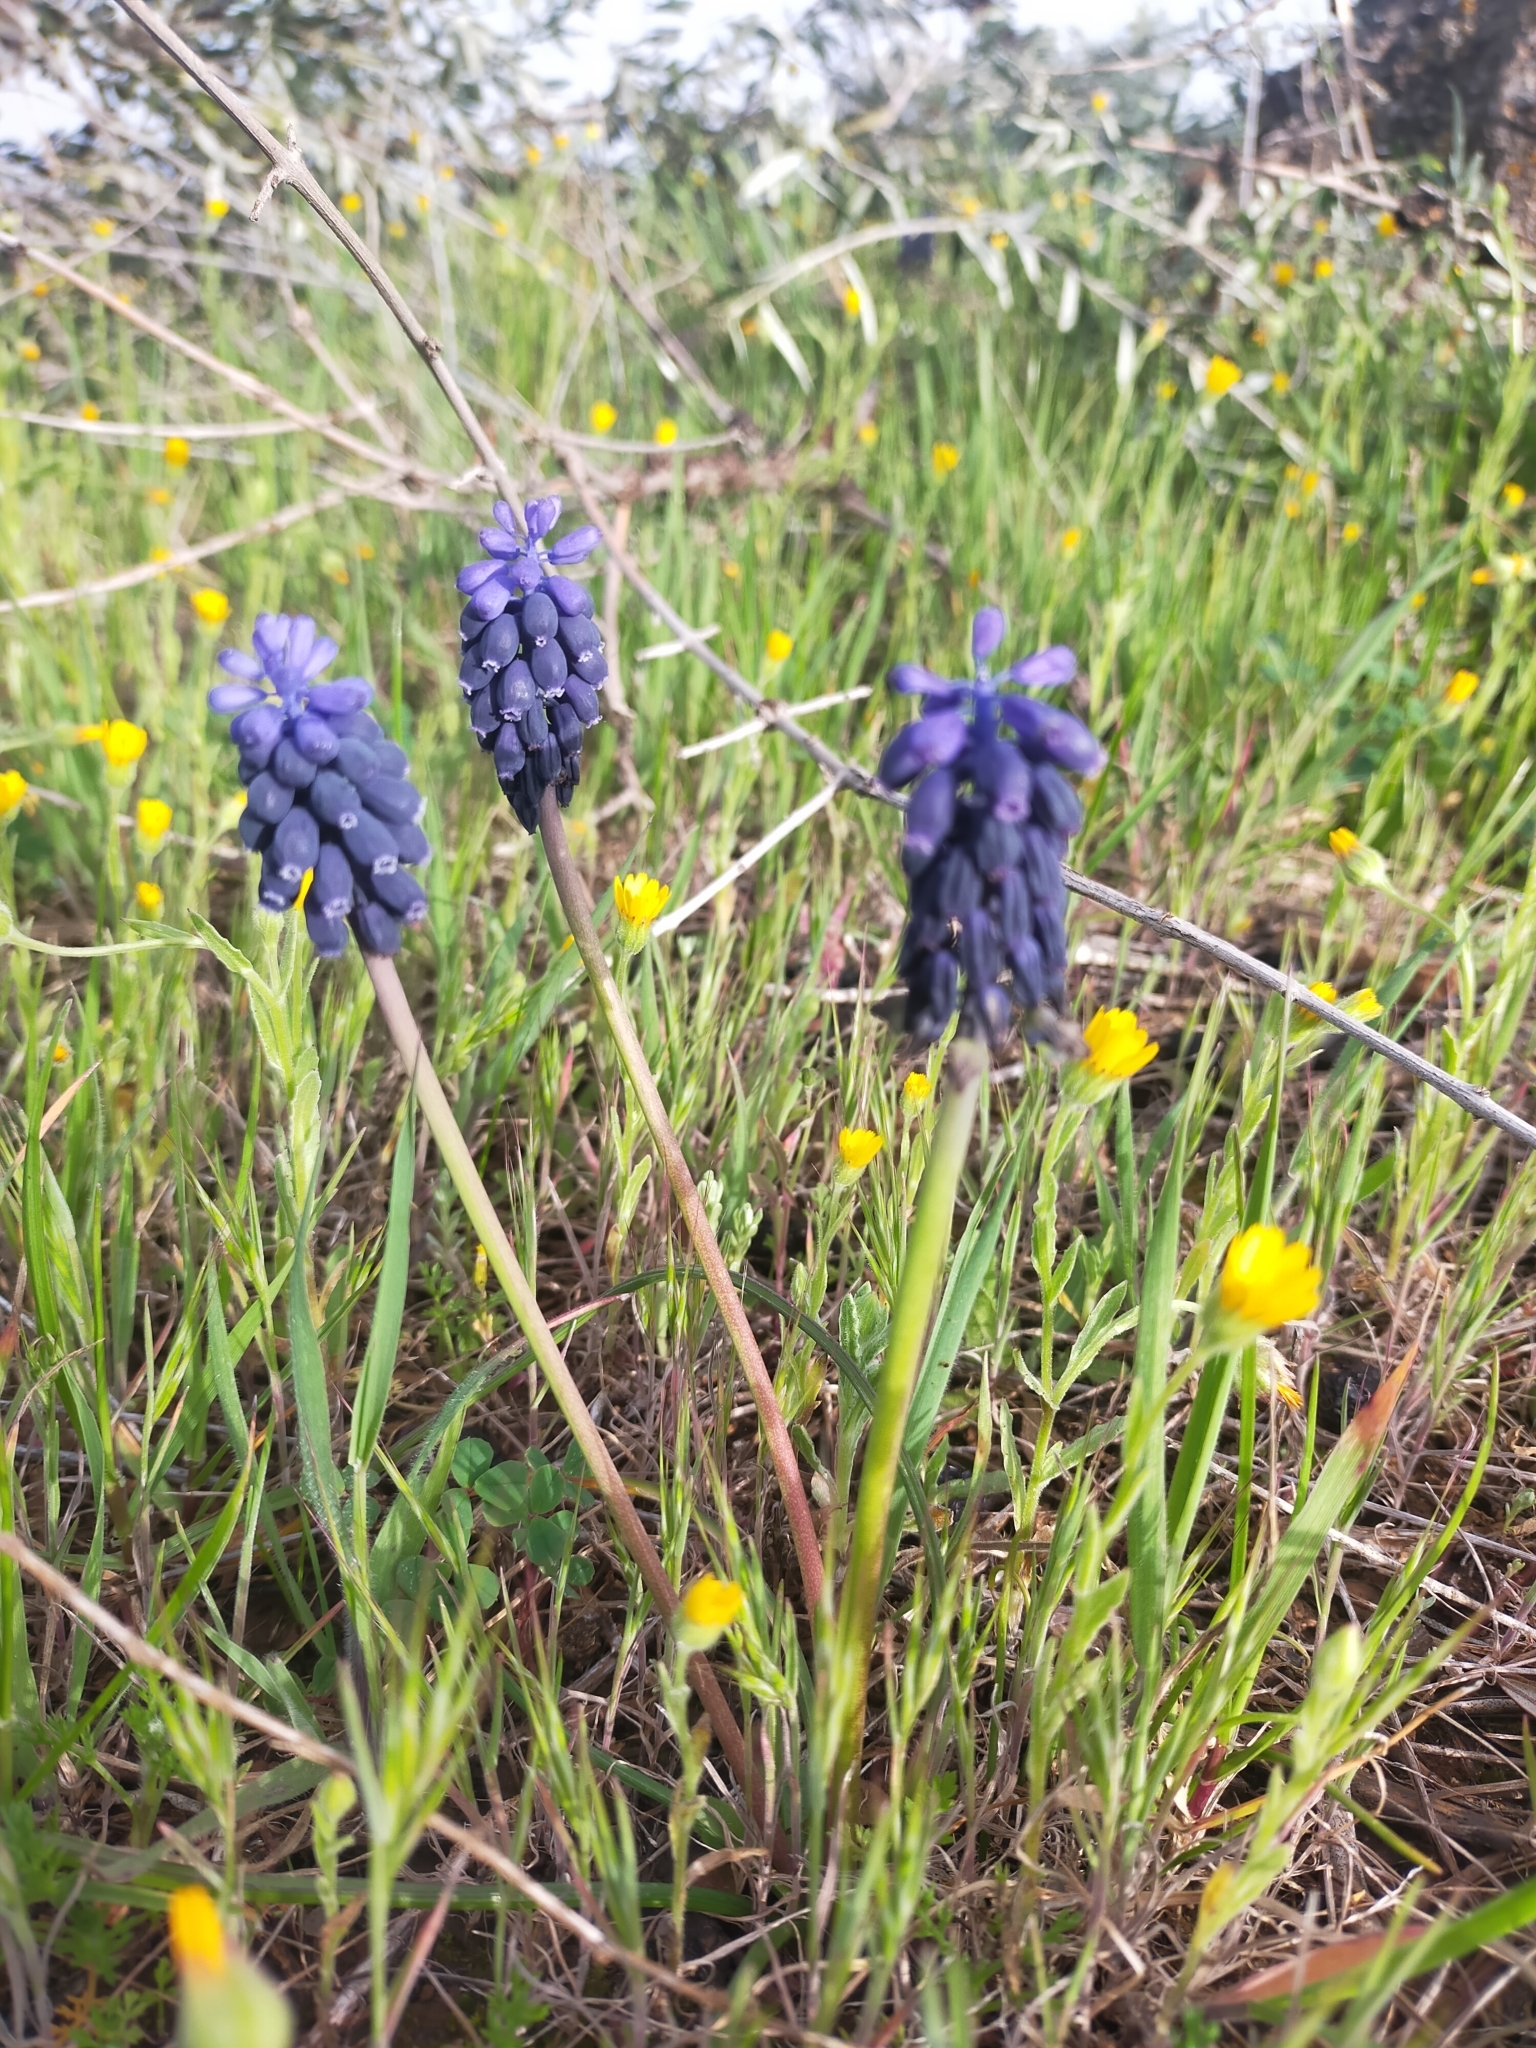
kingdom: Plantae
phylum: Tracheophyta
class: Liliopsida
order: Asparagales
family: Asparagaceae
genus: Muscari
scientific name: Muscari neglectum
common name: Grape-hyacinth
